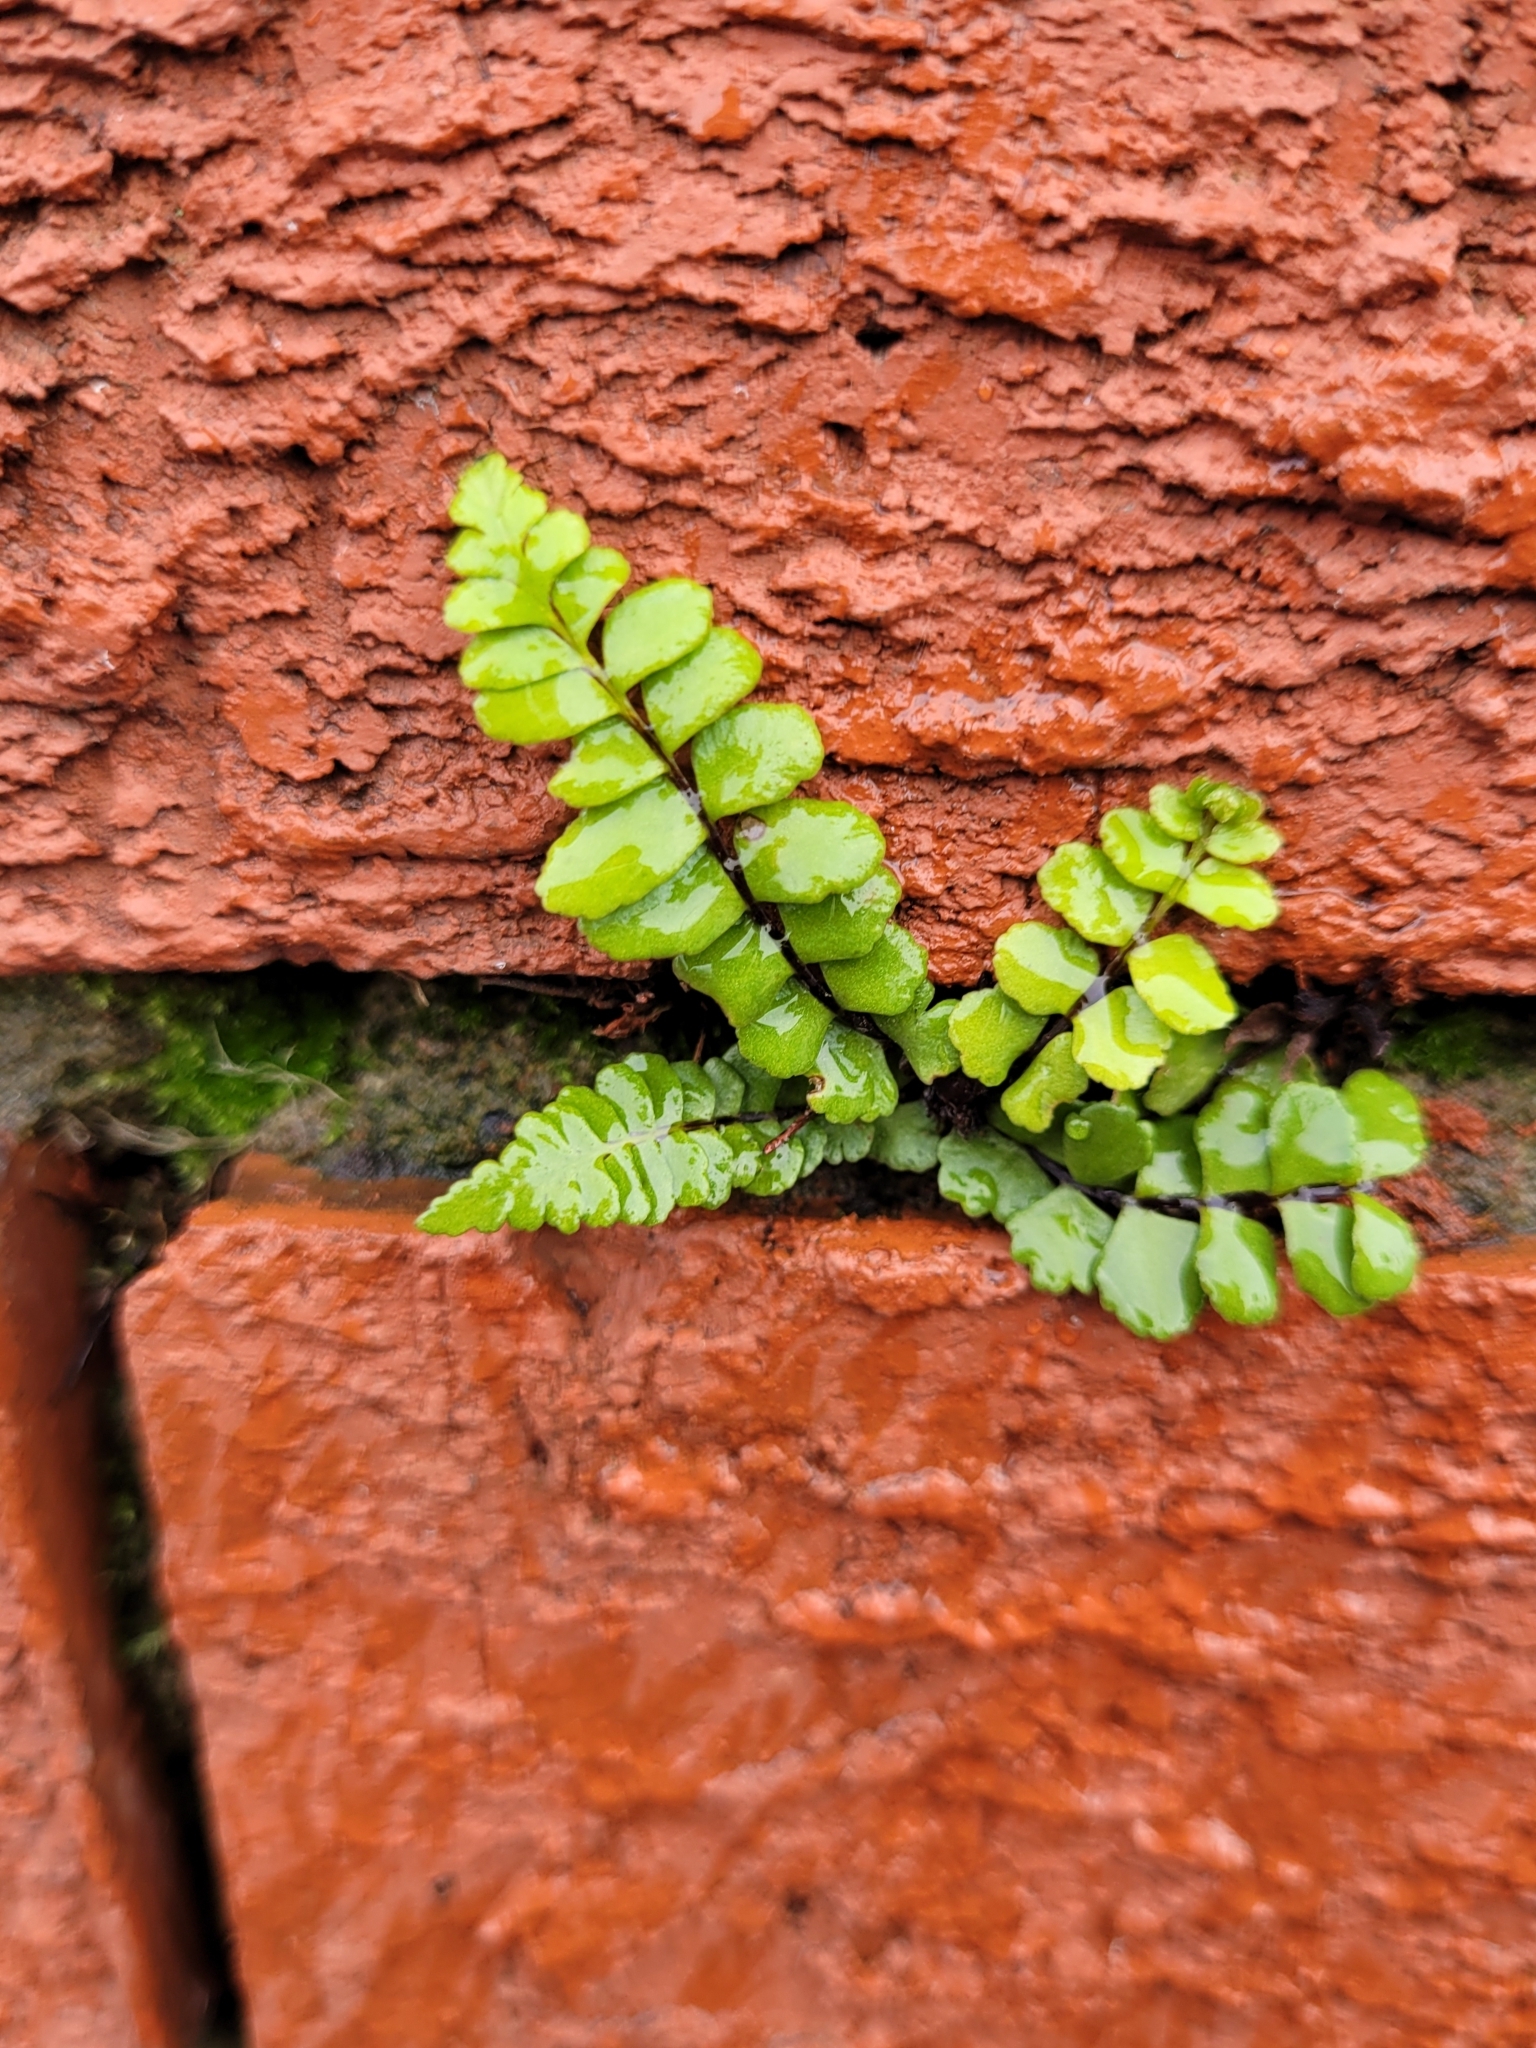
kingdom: Plantae
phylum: Tracheophyta
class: Polypodiopsida
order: Polypodiales
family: Aspleniaceae
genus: Asplenium
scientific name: Asplenium trichomanes
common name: Maidenhair spleenwort
